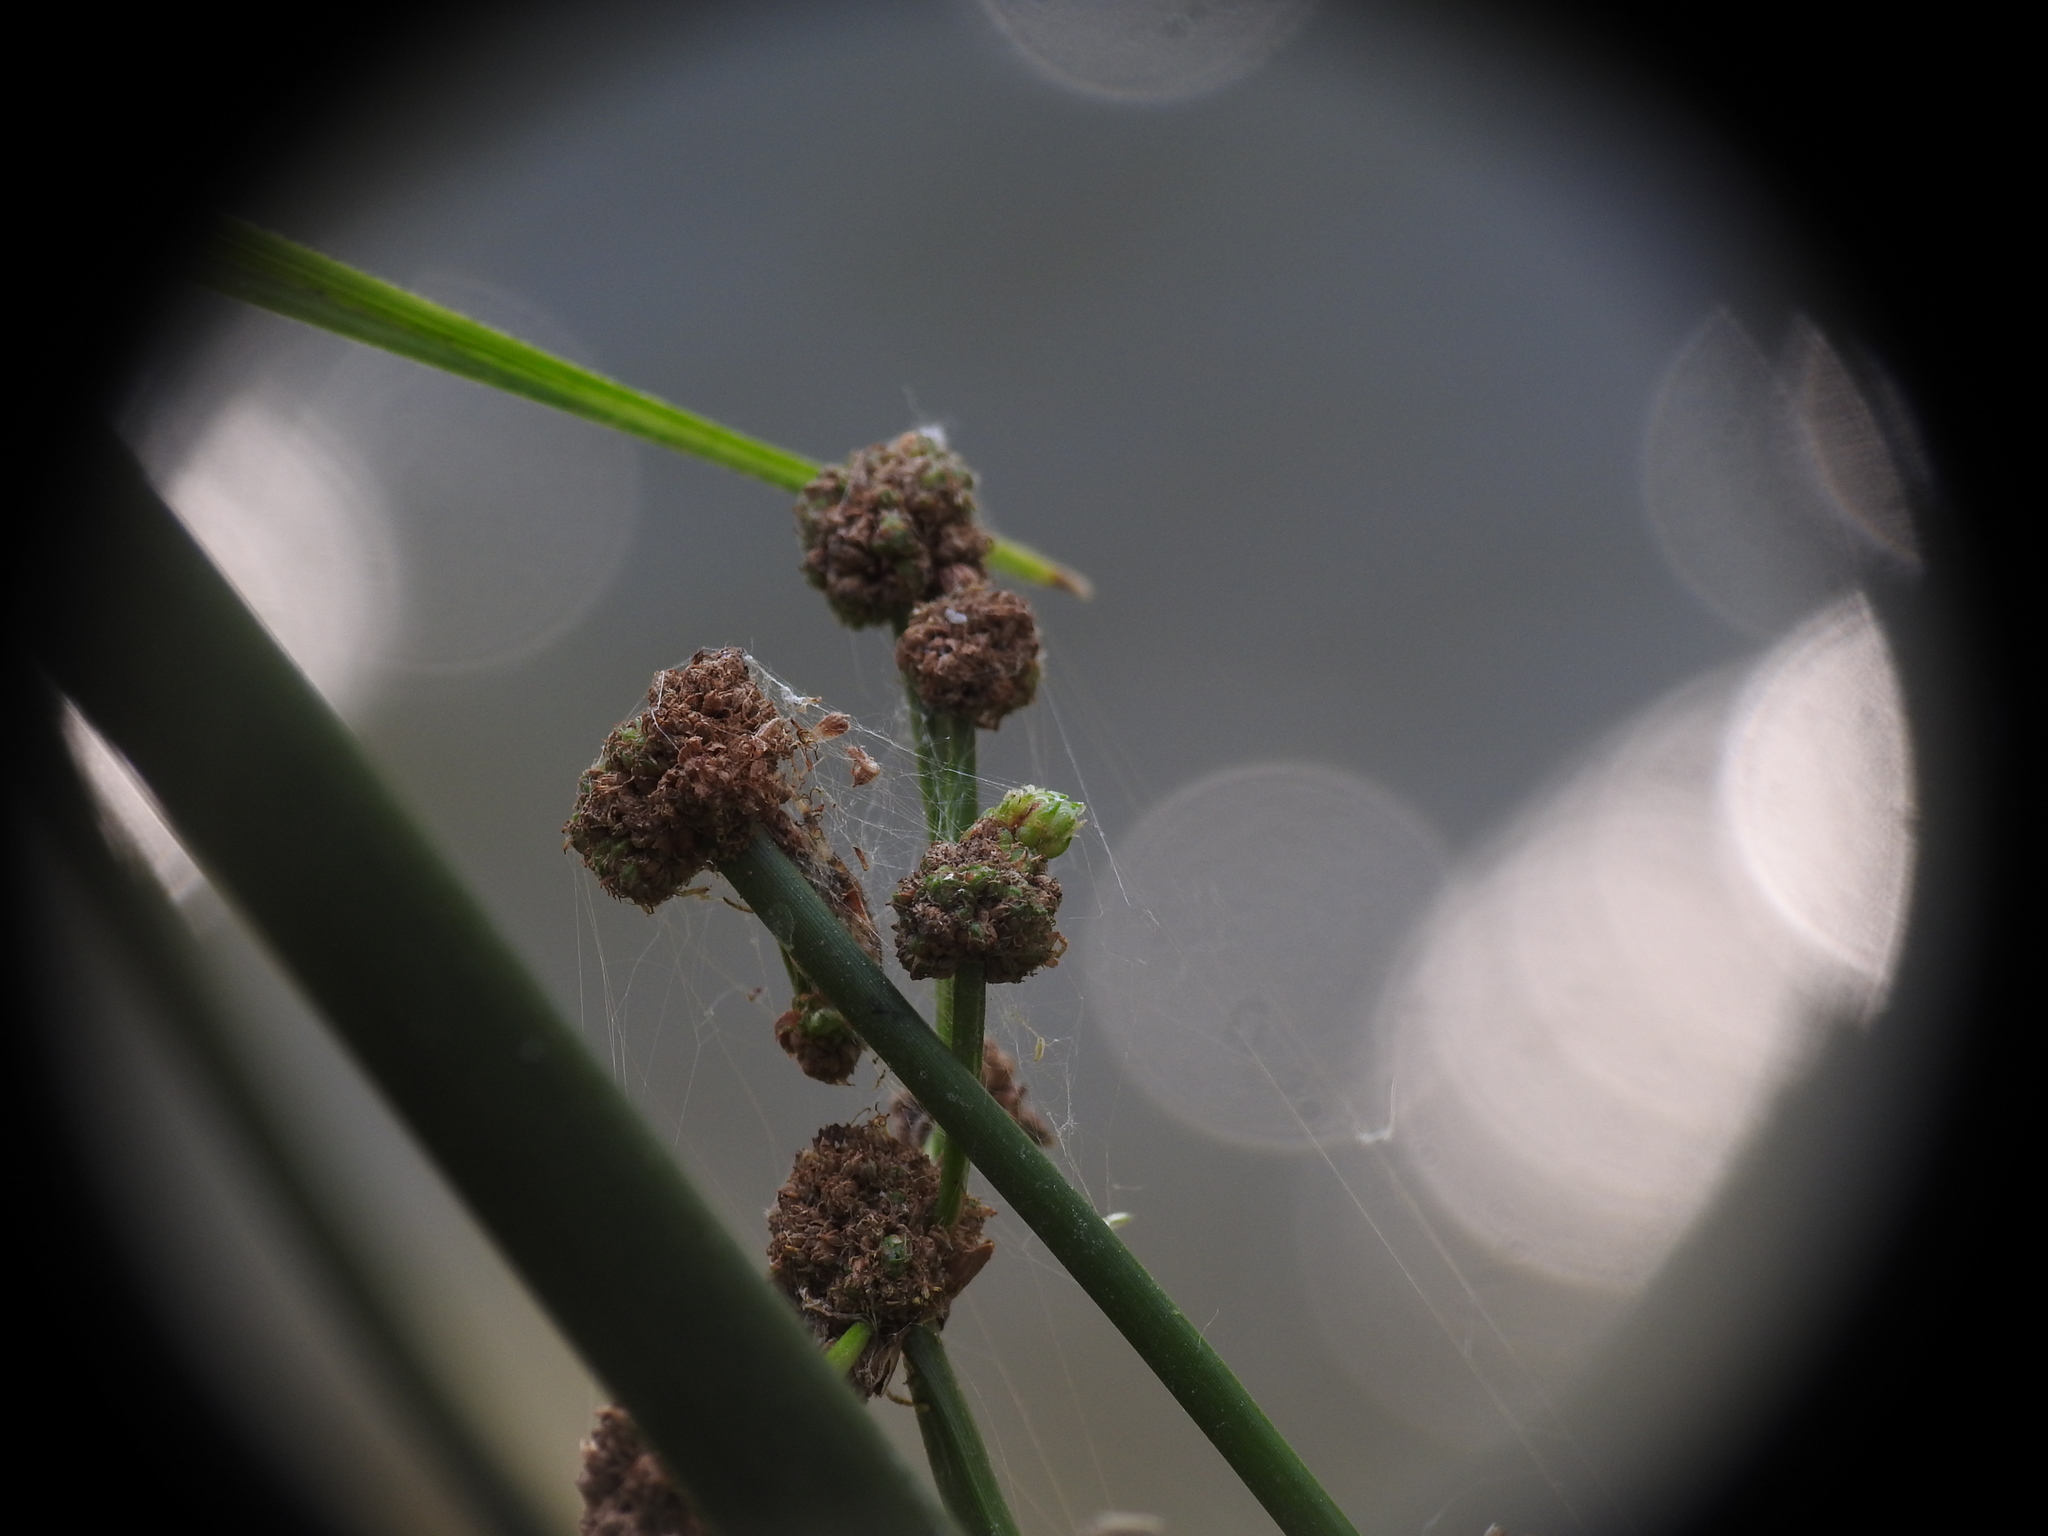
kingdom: Plantae
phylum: Tracheophyta
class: Liliopsida
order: Poales
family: Cyperaceae
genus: Scirpoides
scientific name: Scirpoides holoschoenus
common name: Round-headed club-rush
